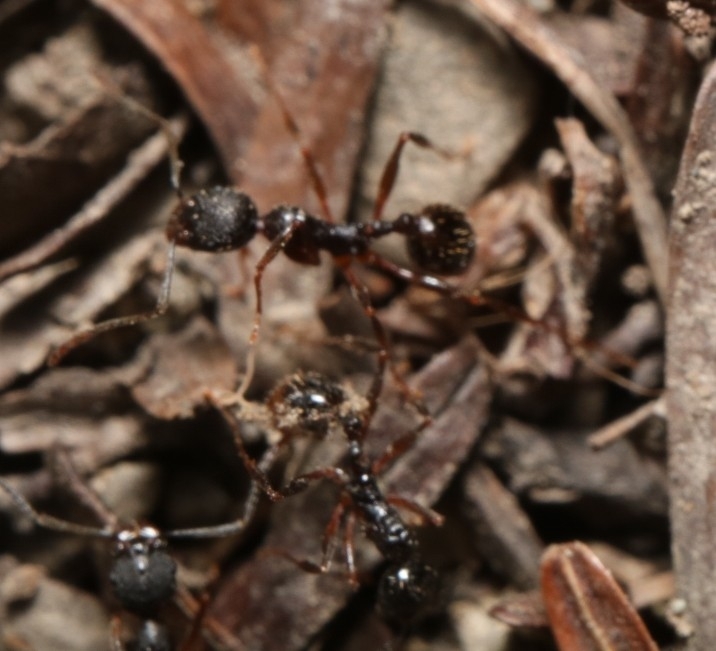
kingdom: Animalia
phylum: Arthropoda
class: Insecta
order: Hymenoptera
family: Formicidae
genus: Aphaenogaster
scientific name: Aphaenogaster picea
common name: Pitch-black collared ant
